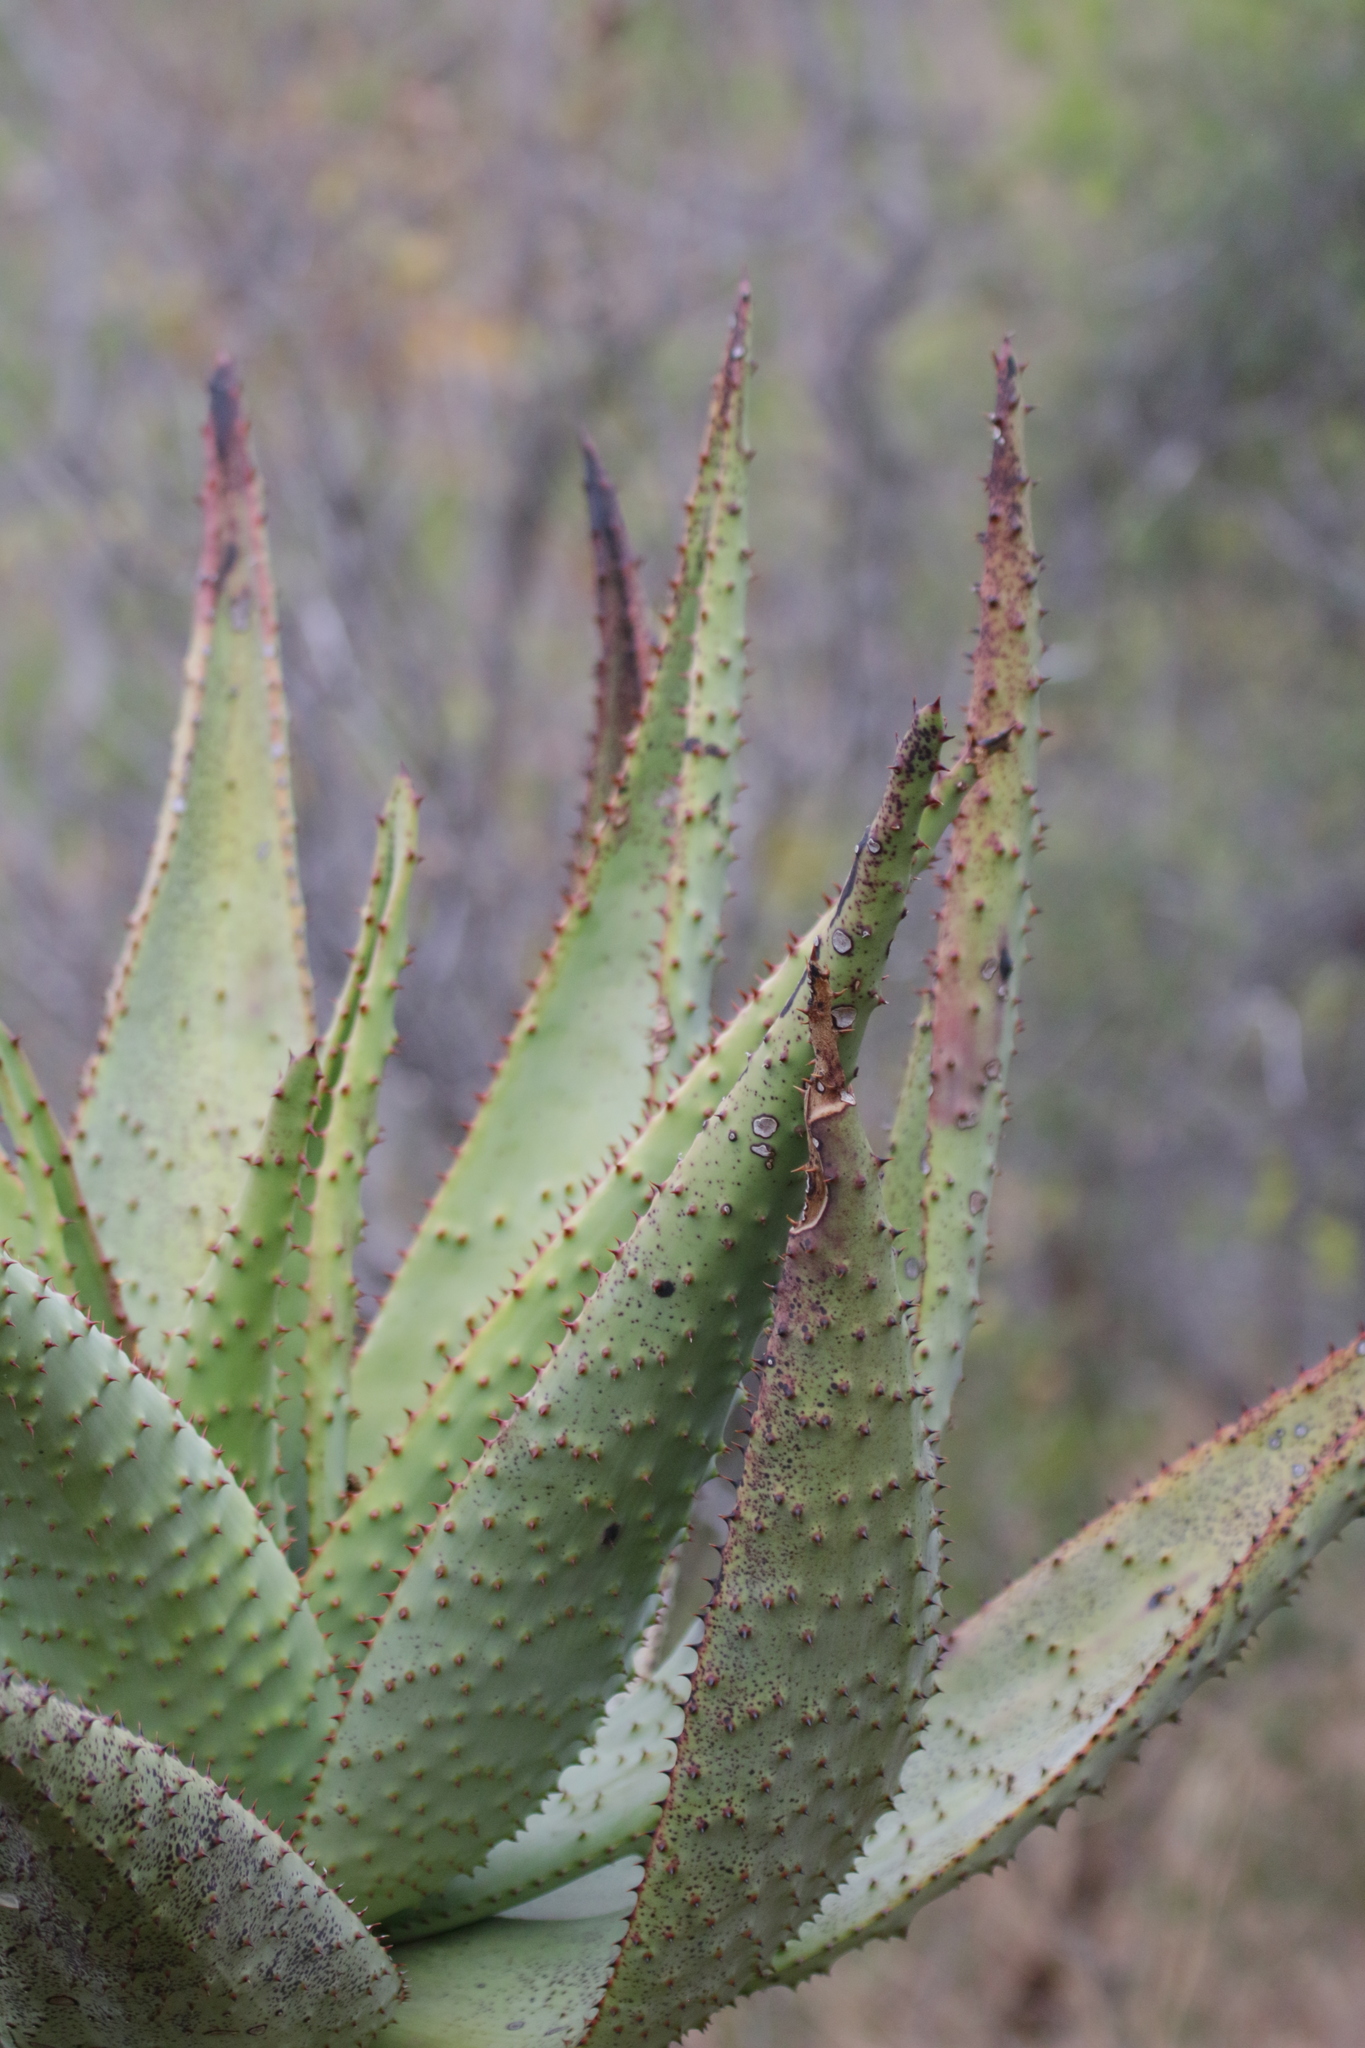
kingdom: Plantae
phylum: Tracheophyta
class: Liliopsida
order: Asparagales
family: Asphodelaceae
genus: Aloe
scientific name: Aloe marlothii
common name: Flat-flowered aloe
